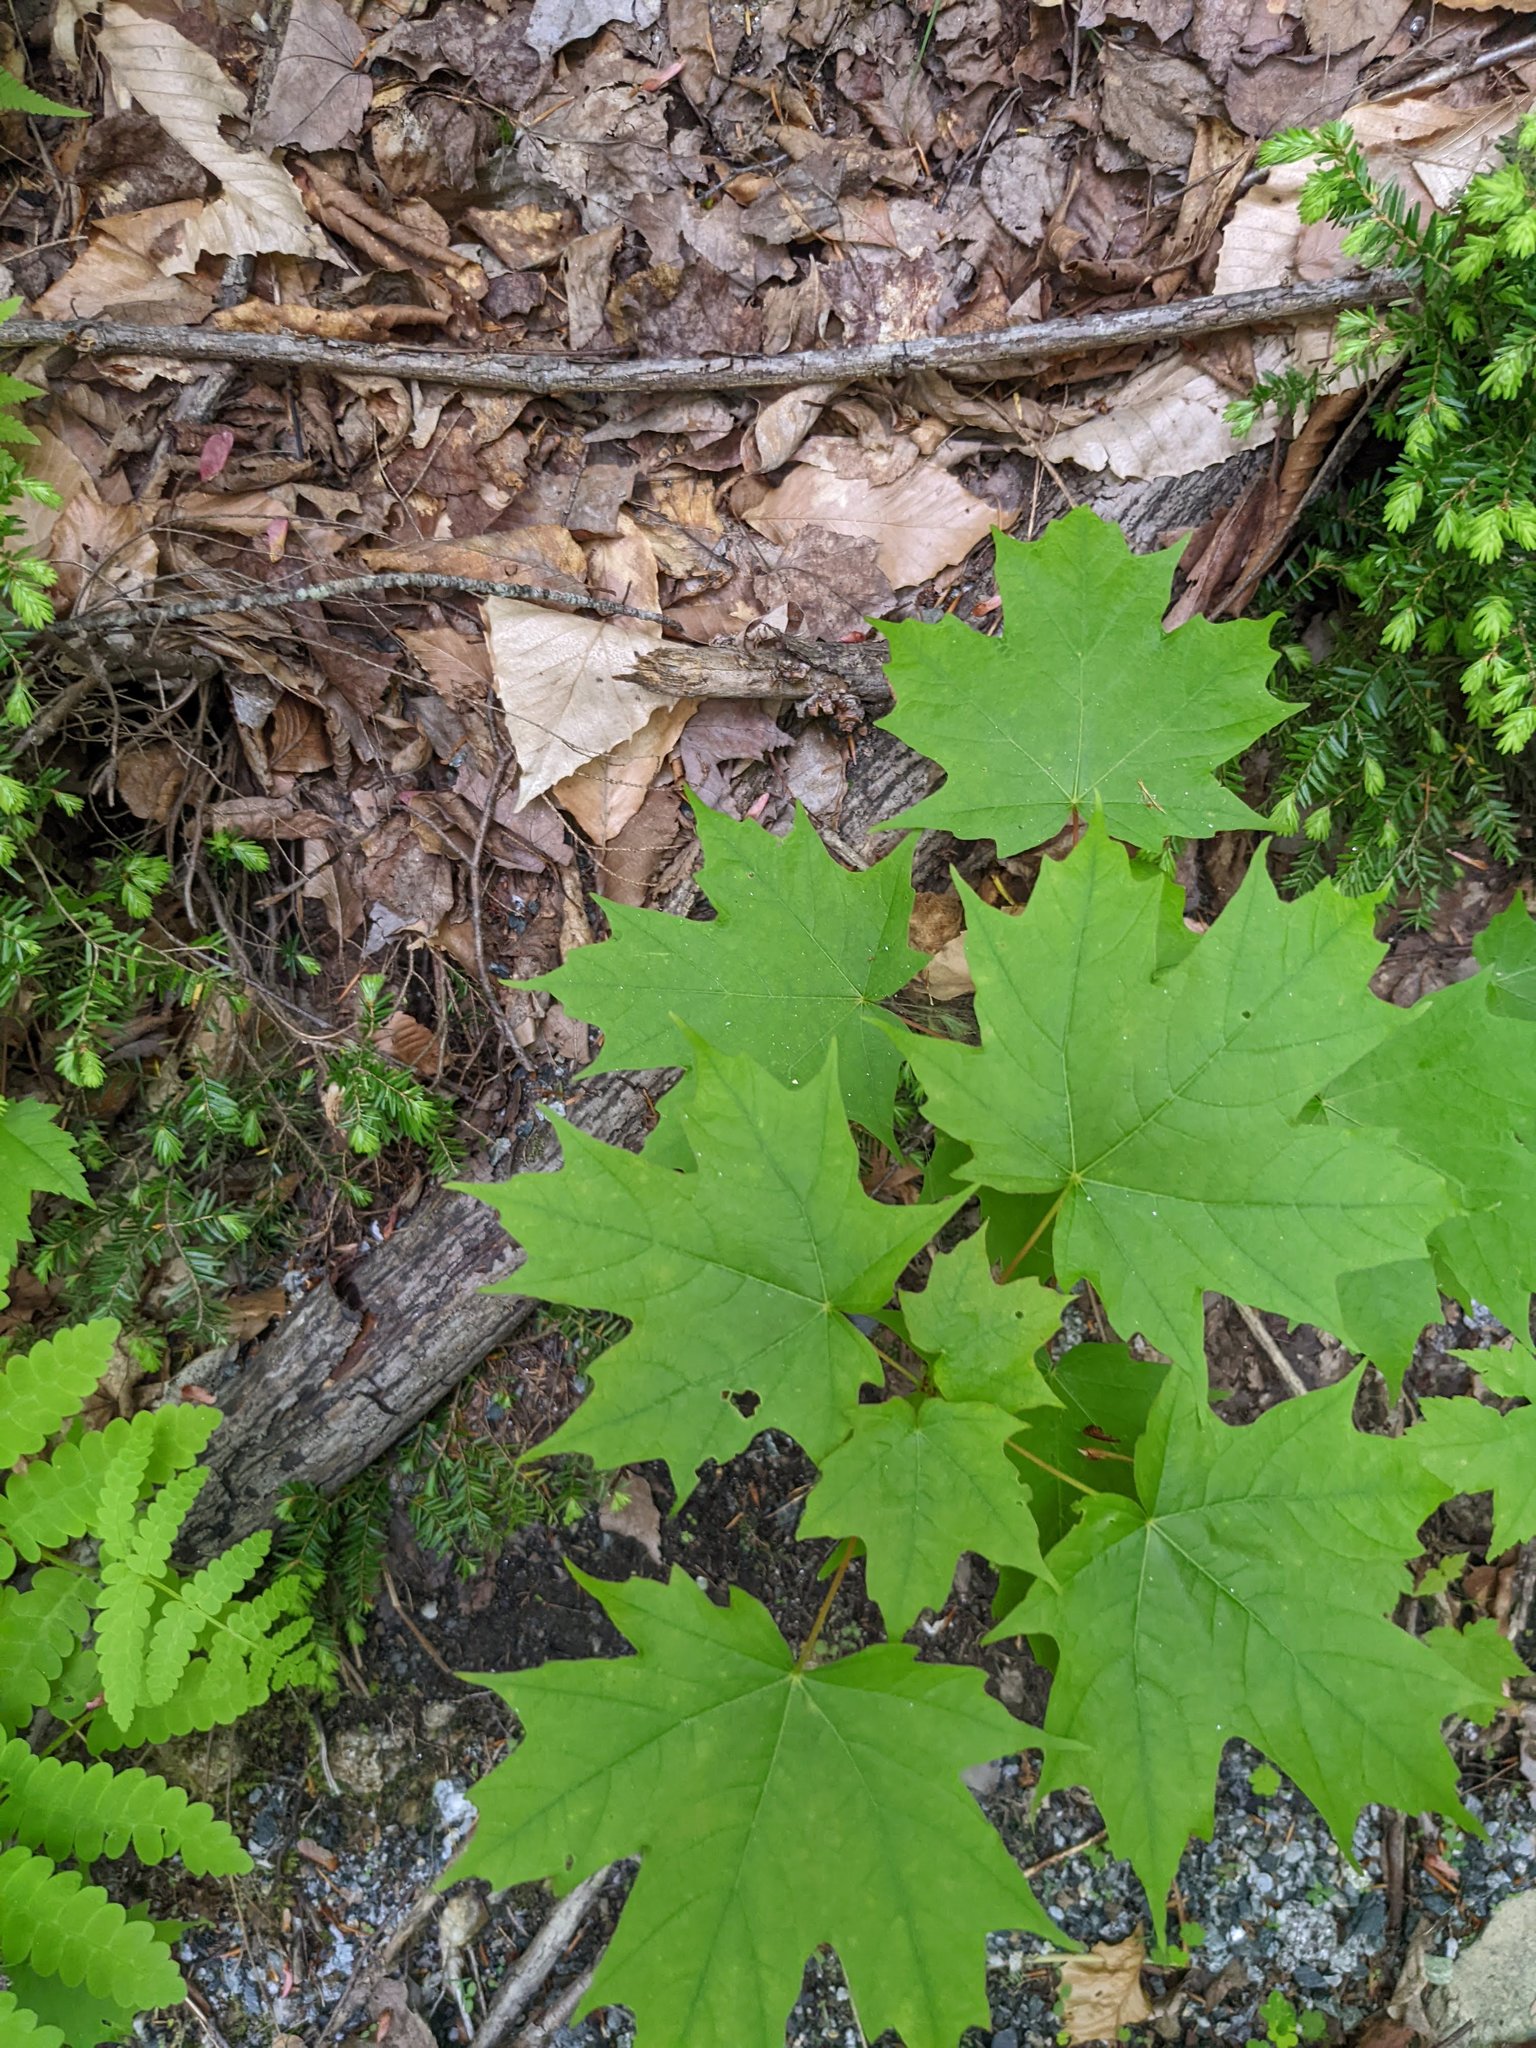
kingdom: Plantae
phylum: Tracheophyta
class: Magnoliopsida
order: Sapindales
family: Sapindaceae
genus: Acer
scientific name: Acer saccharum
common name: Sugar maple
